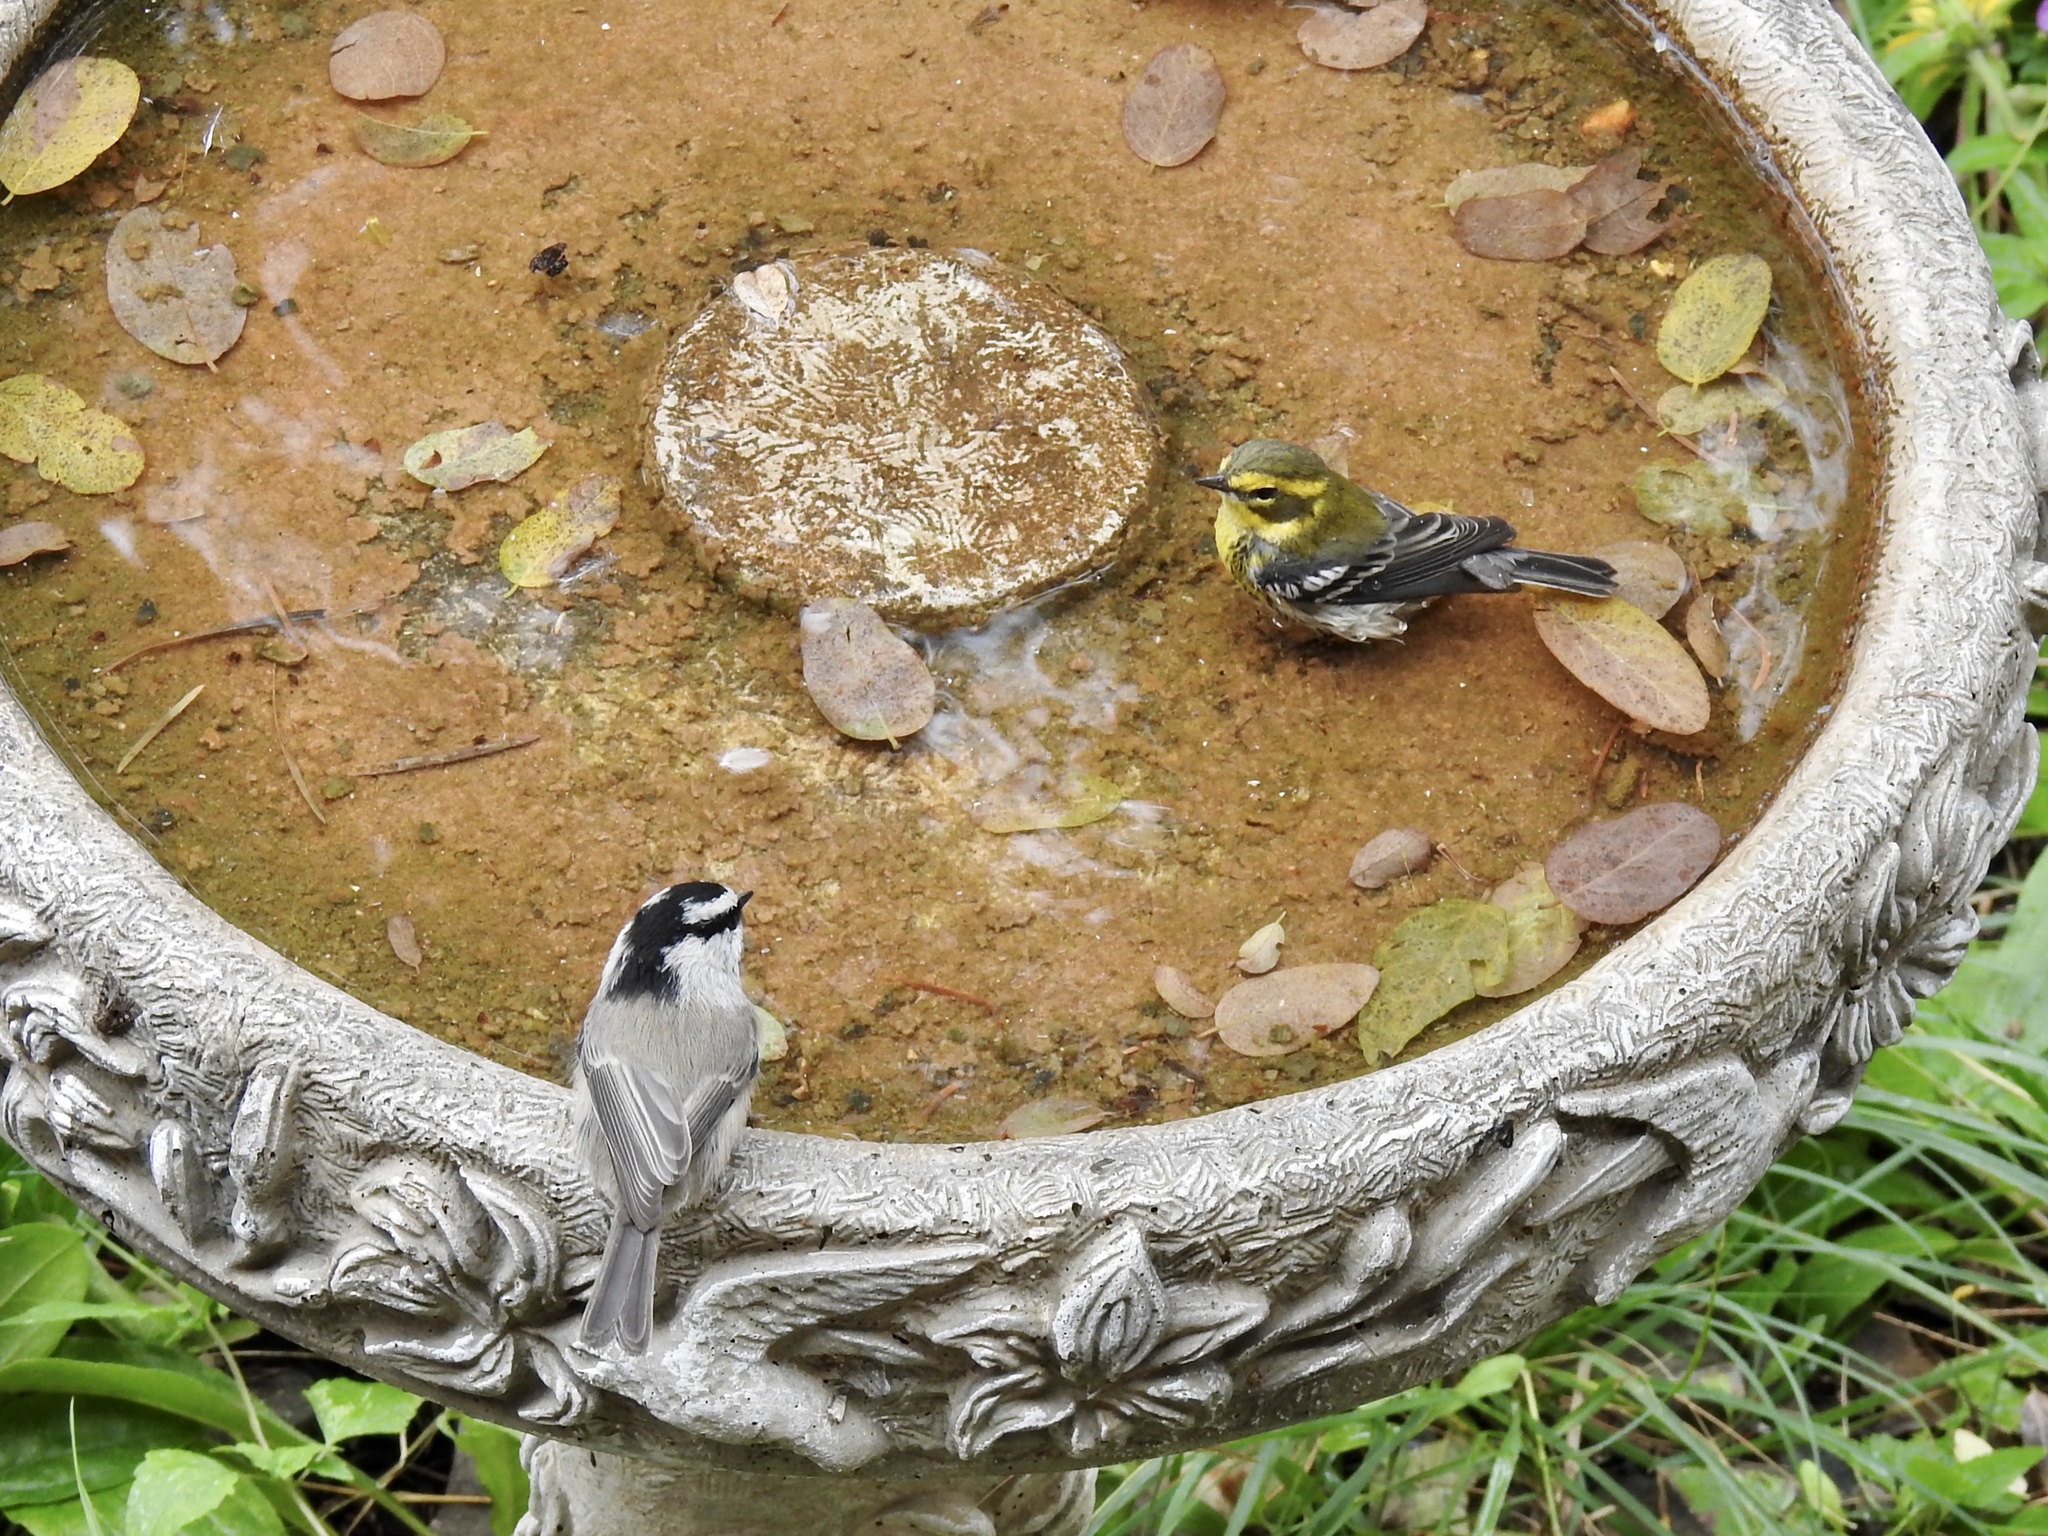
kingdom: Animalia
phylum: Chordata
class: Aves
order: Passeriformes
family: Paridae
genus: Poecile
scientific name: Poecile gambeli
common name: Mountain chickadee
